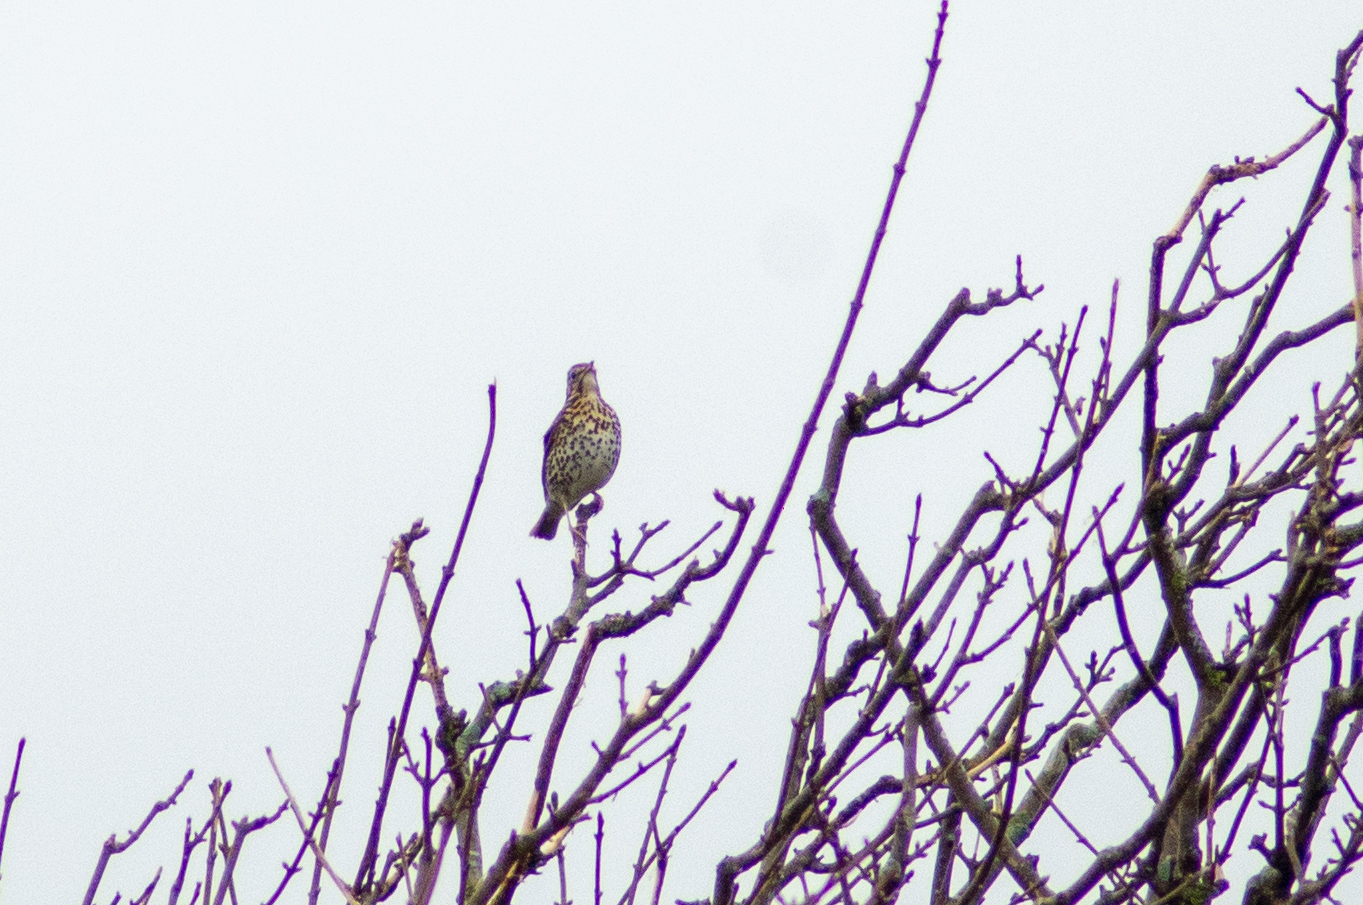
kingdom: Animalia
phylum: Chordata
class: Aves
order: Passeriformes
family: Turdidae
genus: Turdus
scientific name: Turdus philomelos
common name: Song thrush
